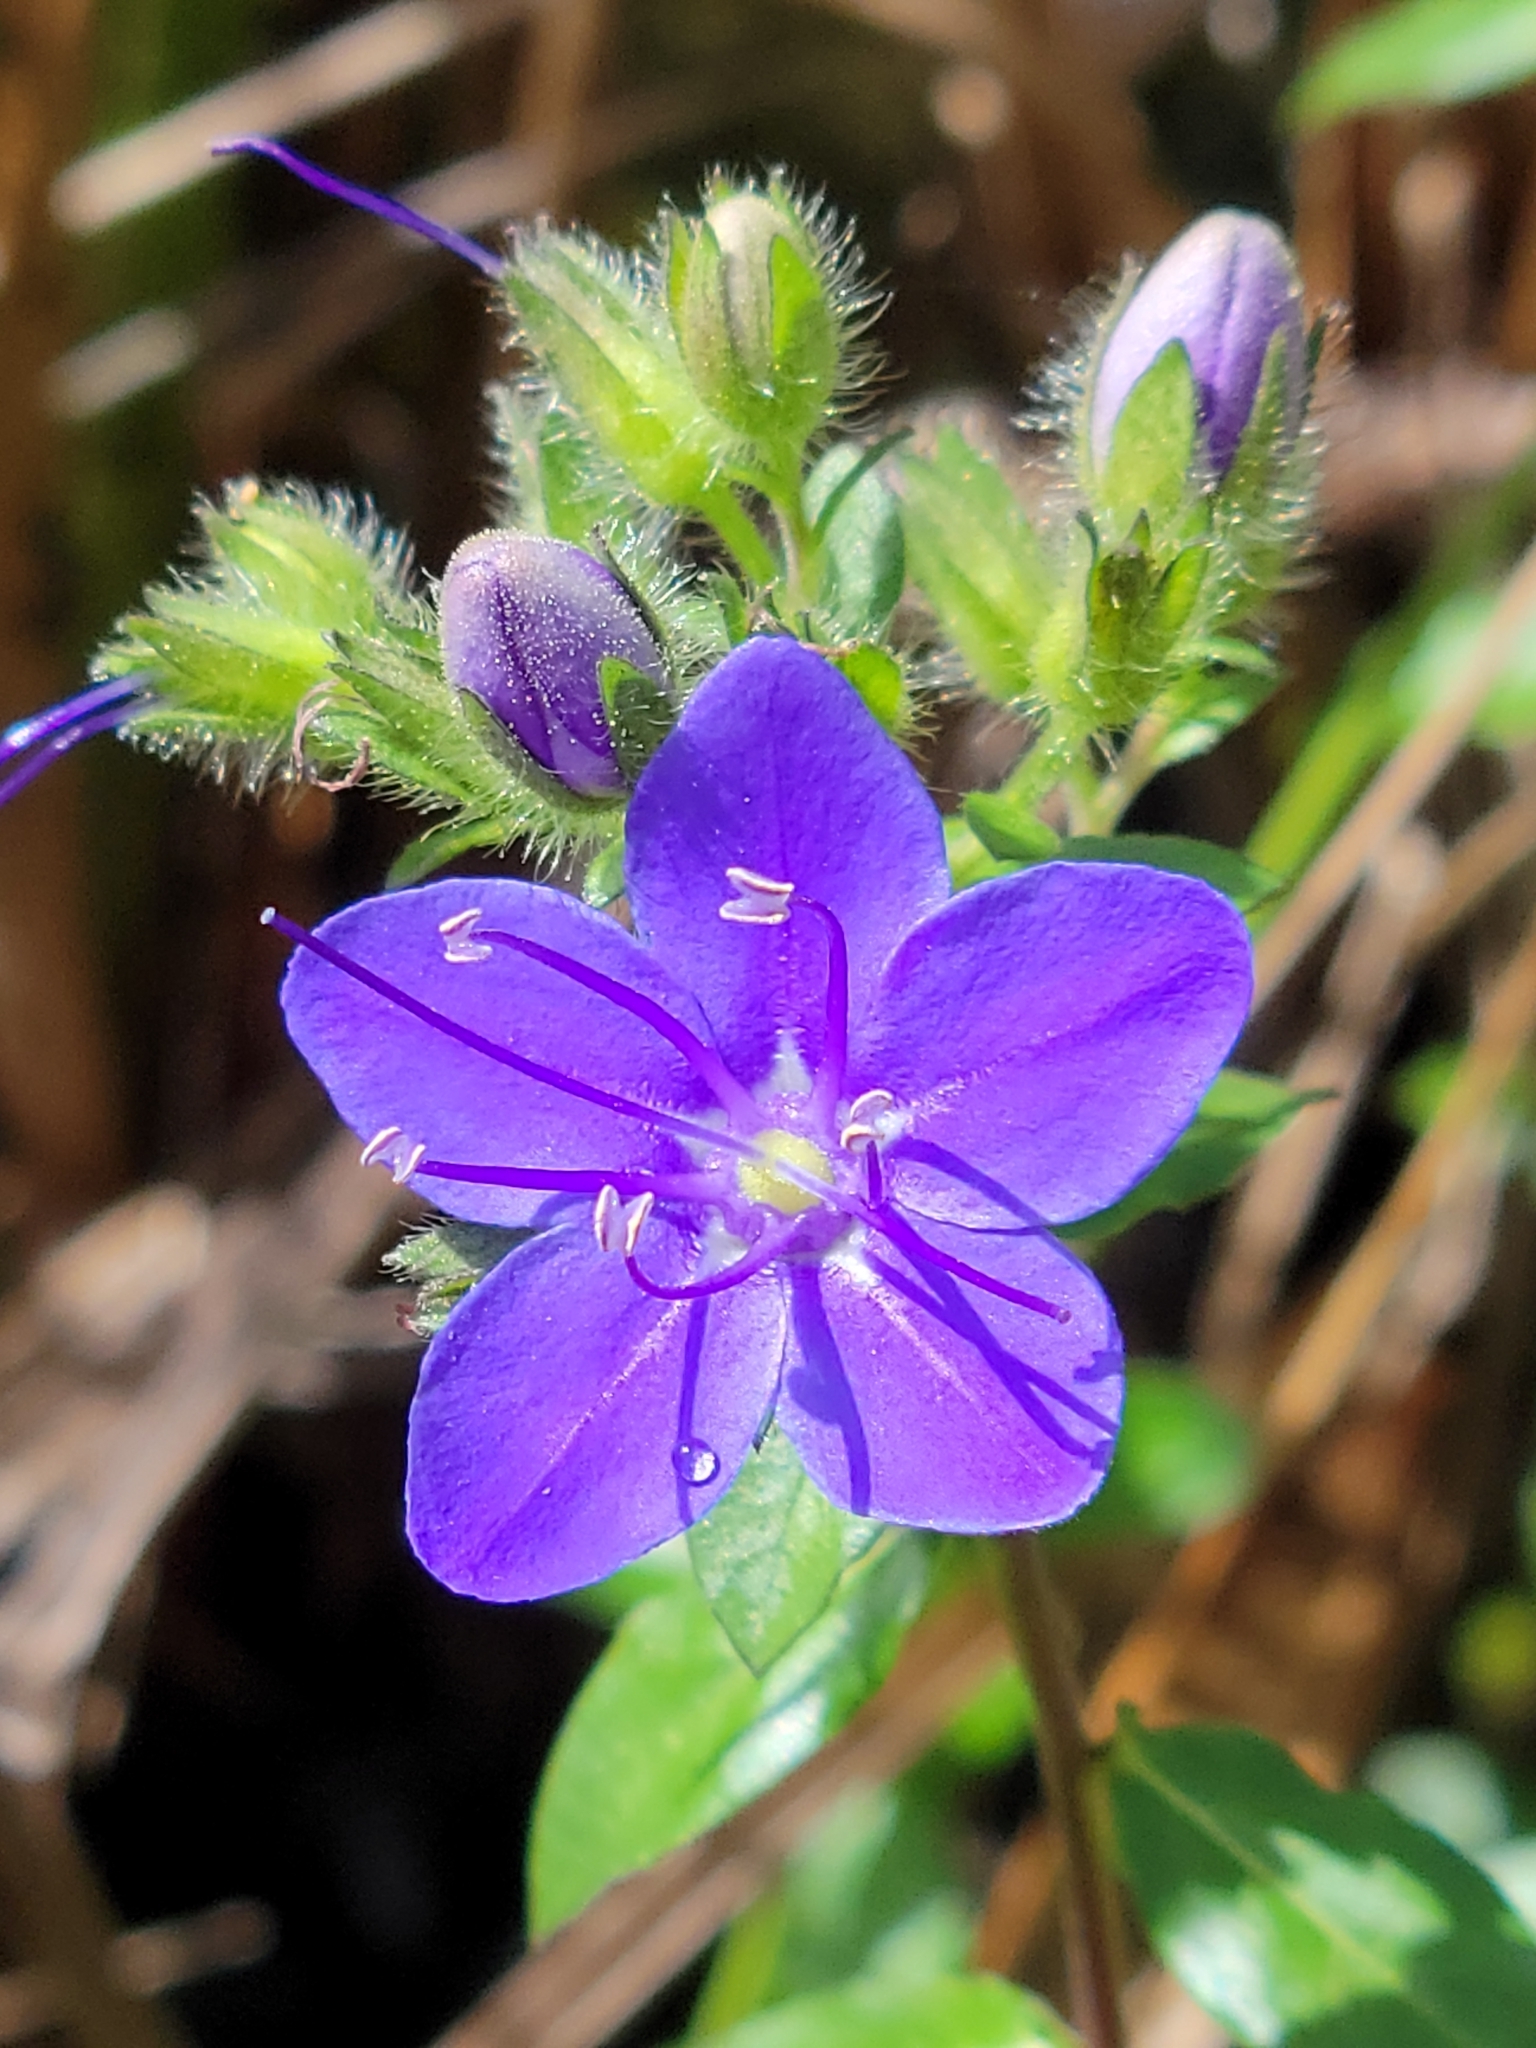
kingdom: Plantae
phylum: Tracheophyta
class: Magnoliopsida
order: Solanales
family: Hydroleaceae
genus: Hydrolea
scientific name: Hydrolea corymbosa
